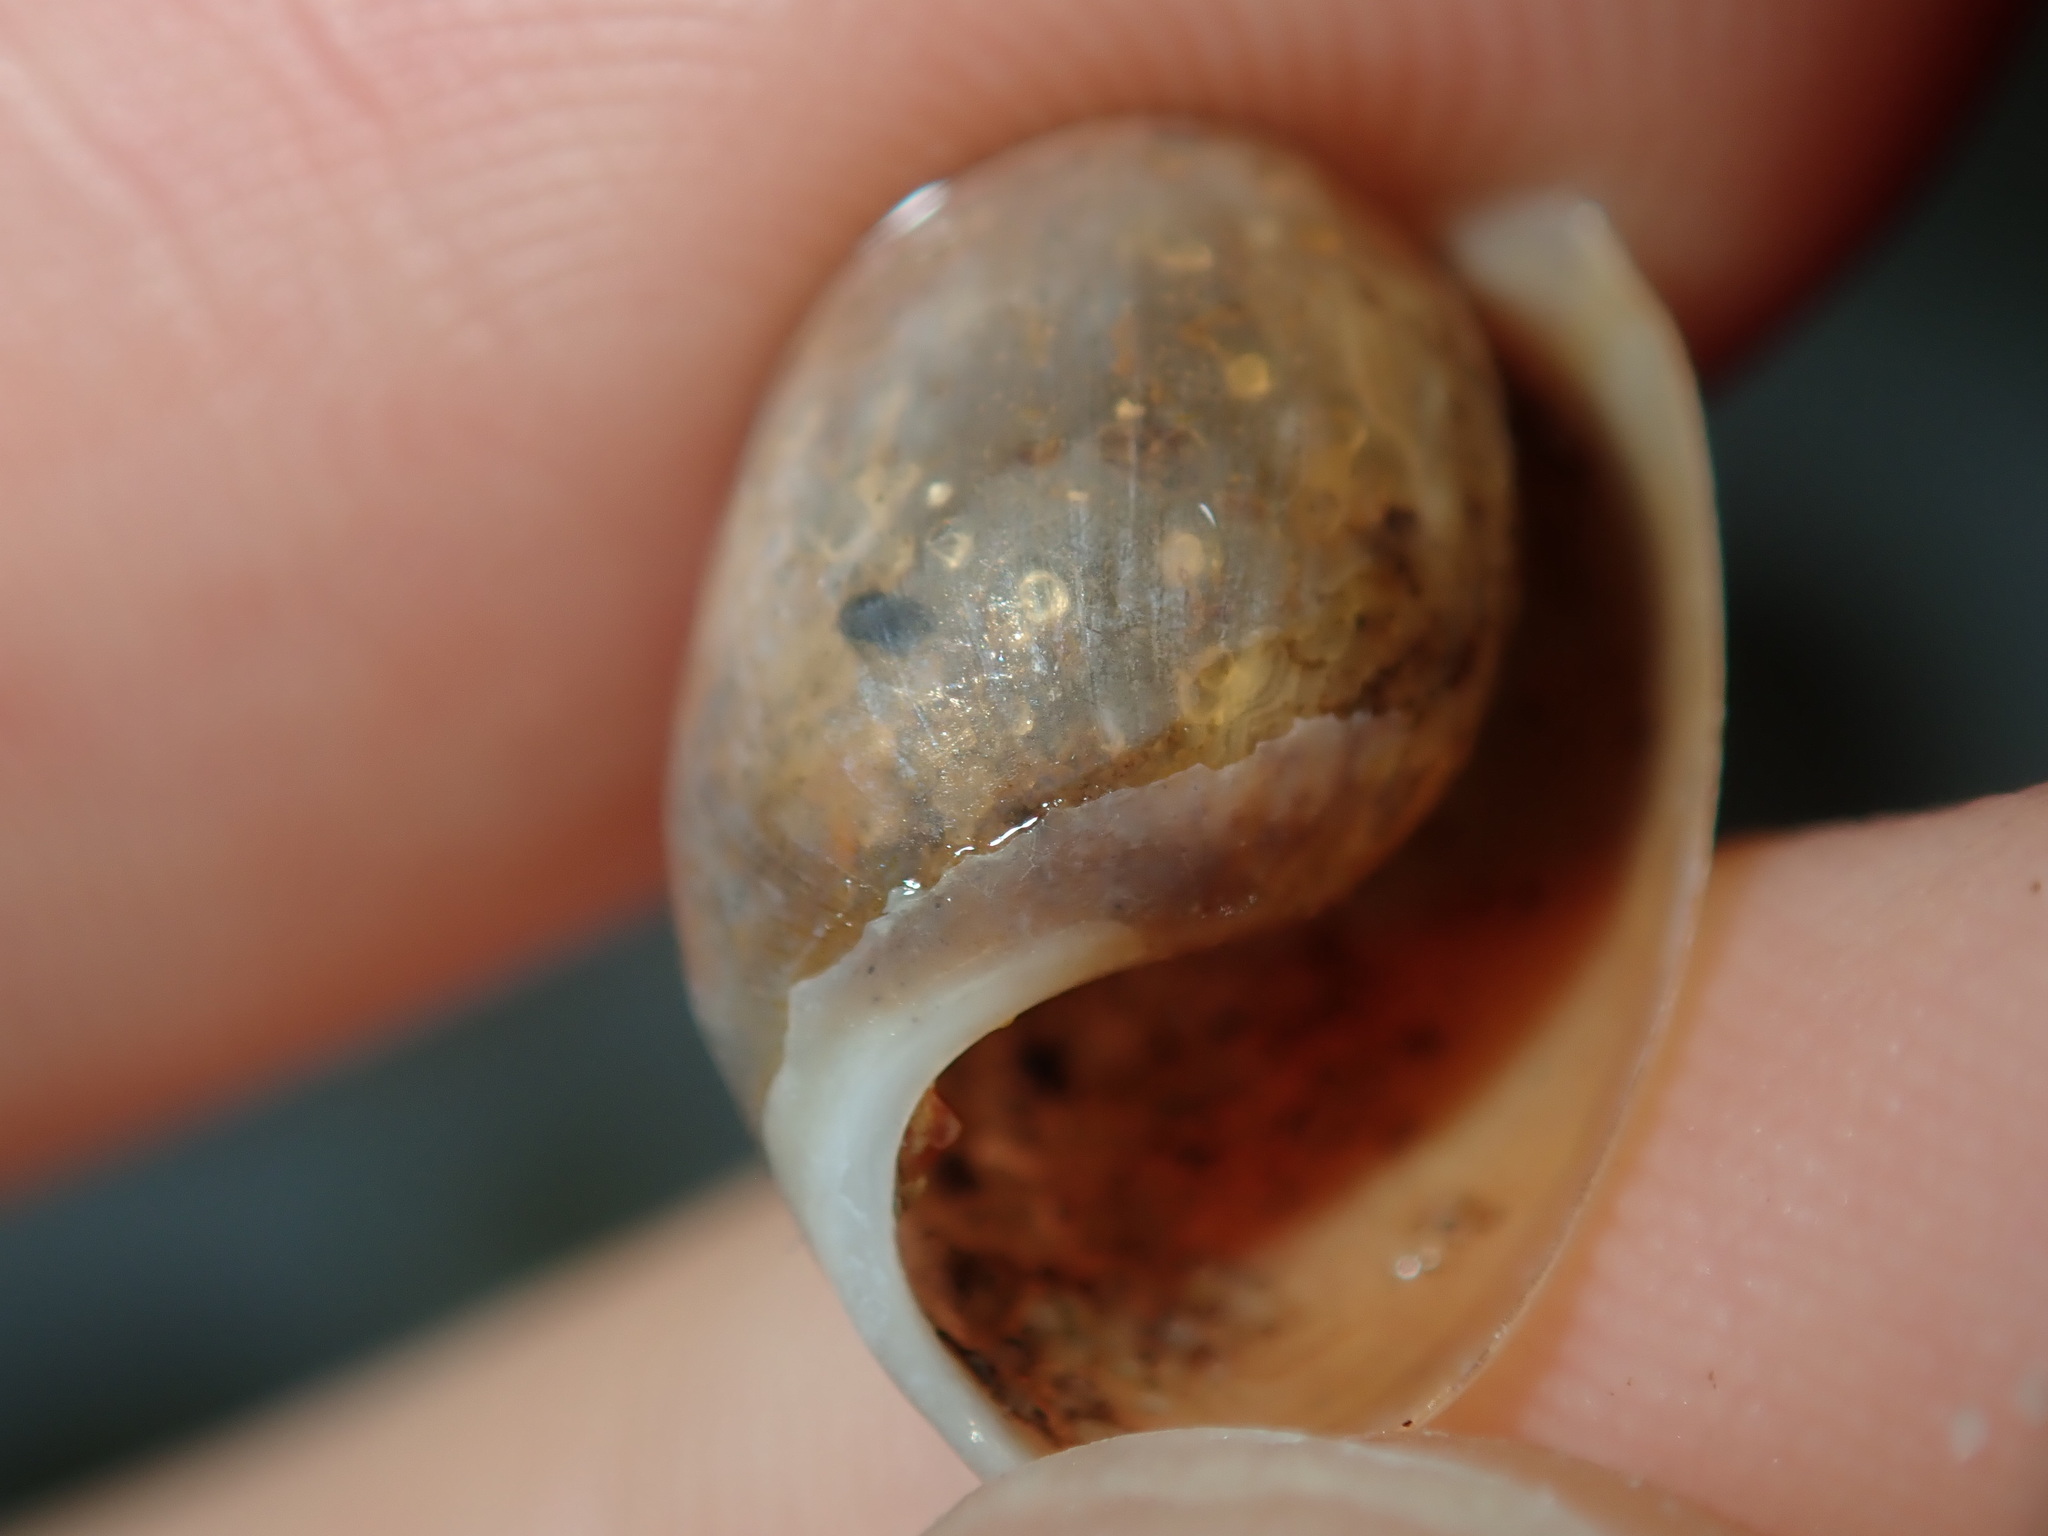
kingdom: Animalia
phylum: Mollusca
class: Gastropoda
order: Cephalaspidea
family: Bullidae
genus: Bulla
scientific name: Bulla mabillei
